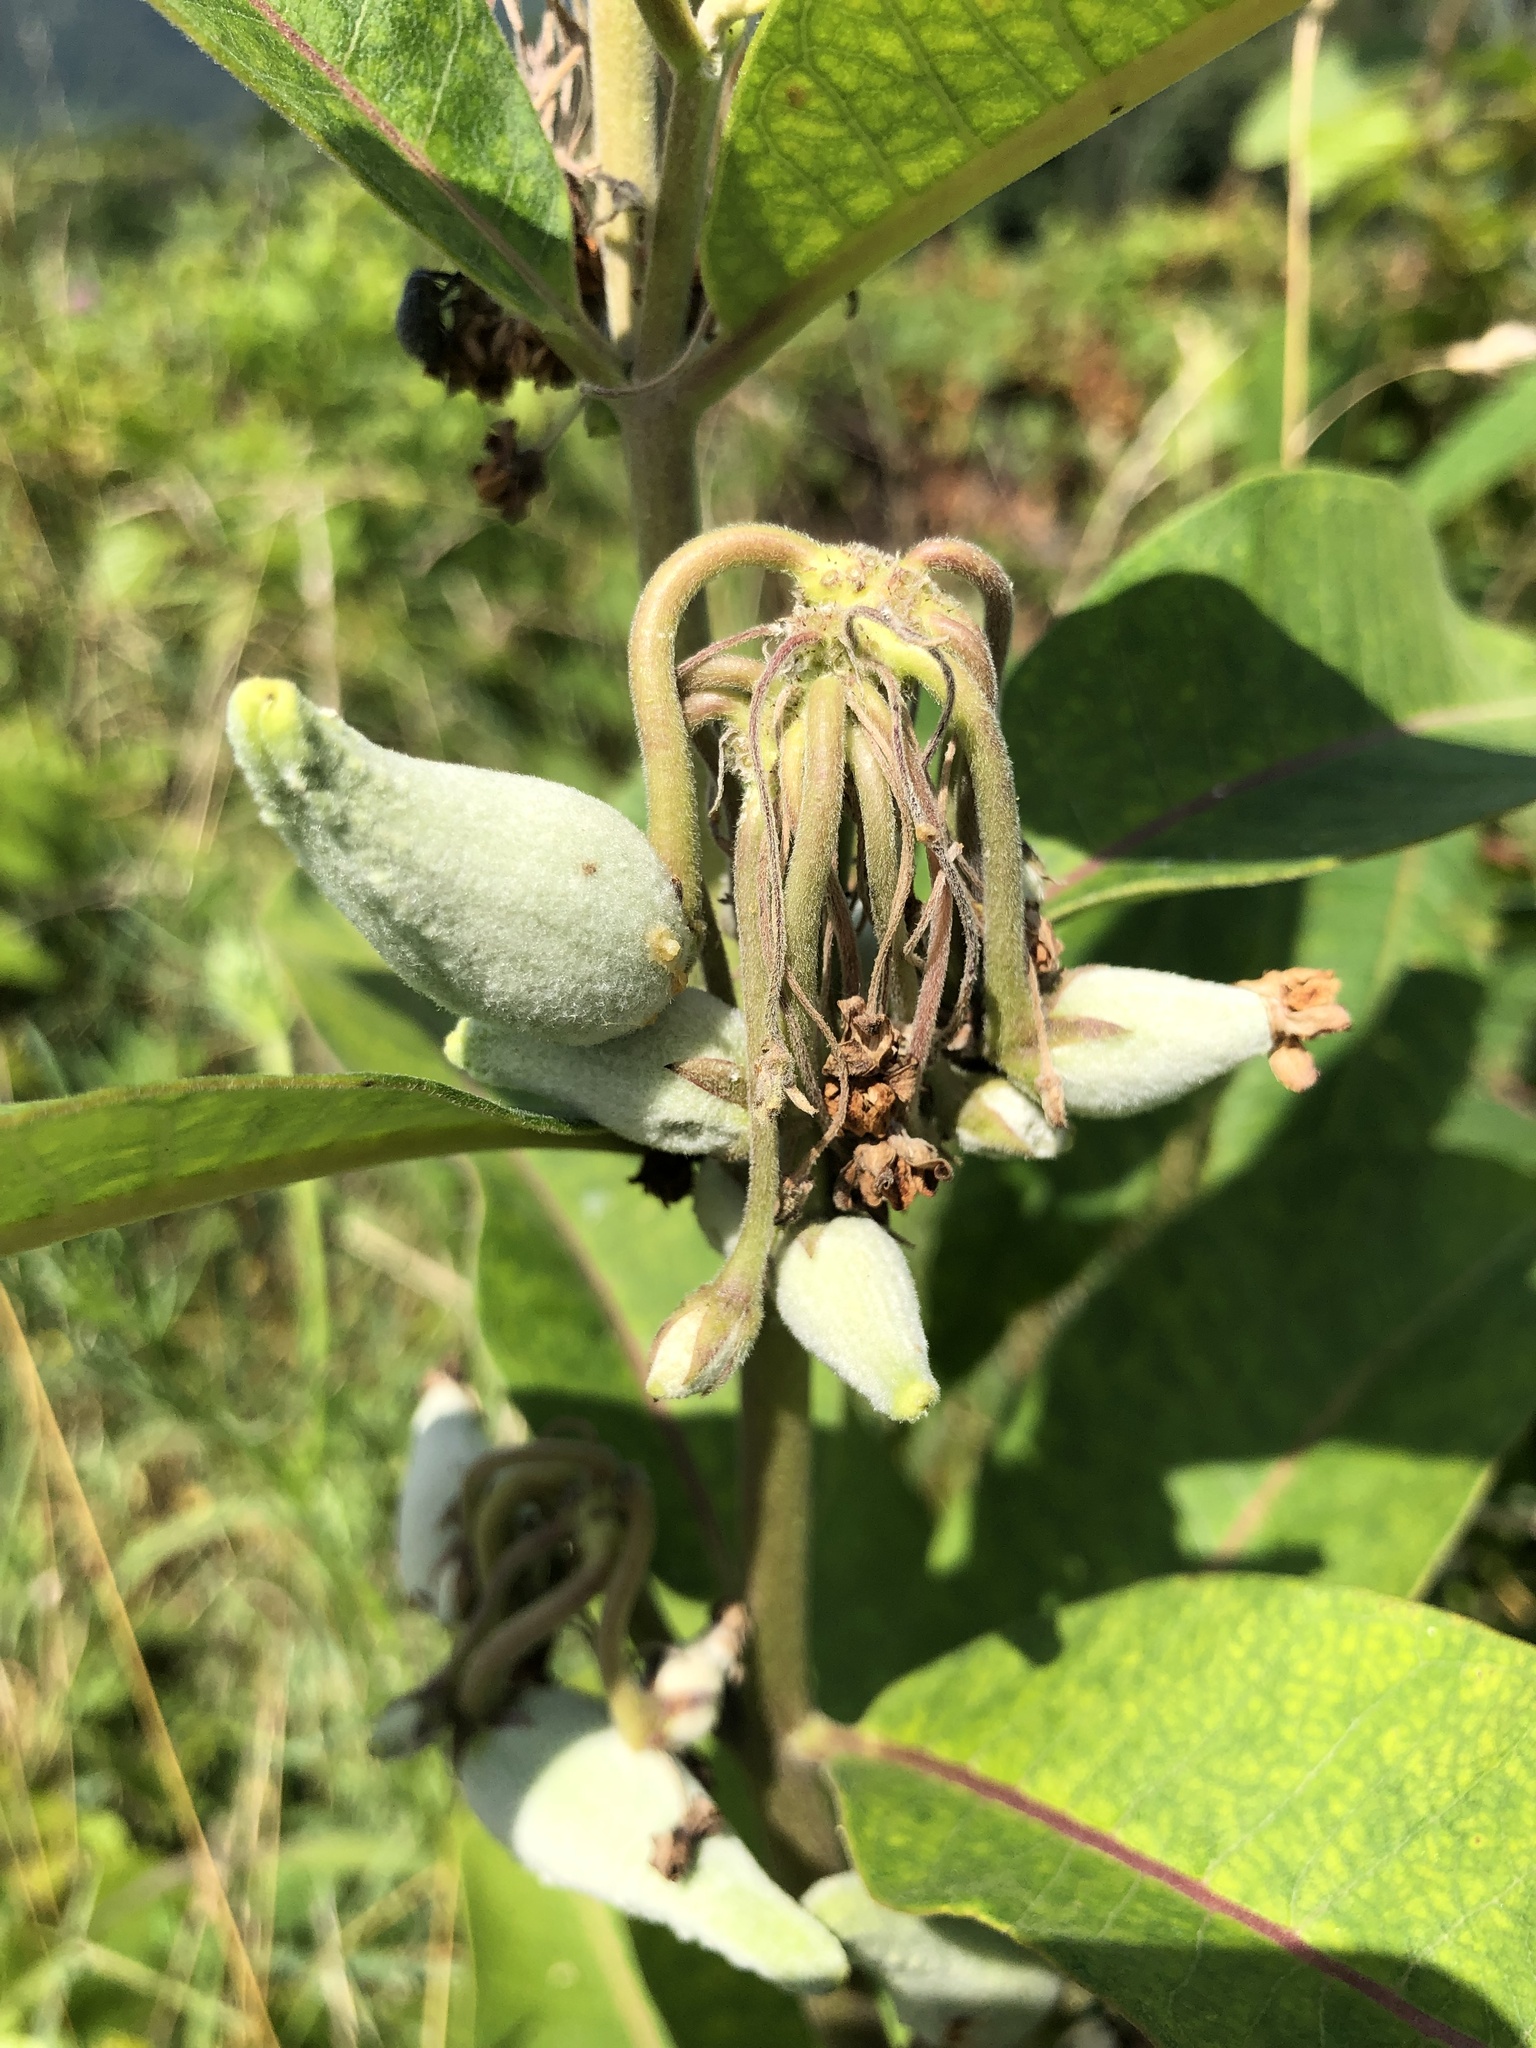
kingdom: Plantae
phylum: Tracheophyta
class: Magnoliopsida
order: Gentianales
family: Apocynaceae
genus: Asclepias
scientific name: Asclepias syriaca
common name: Common milkweed
